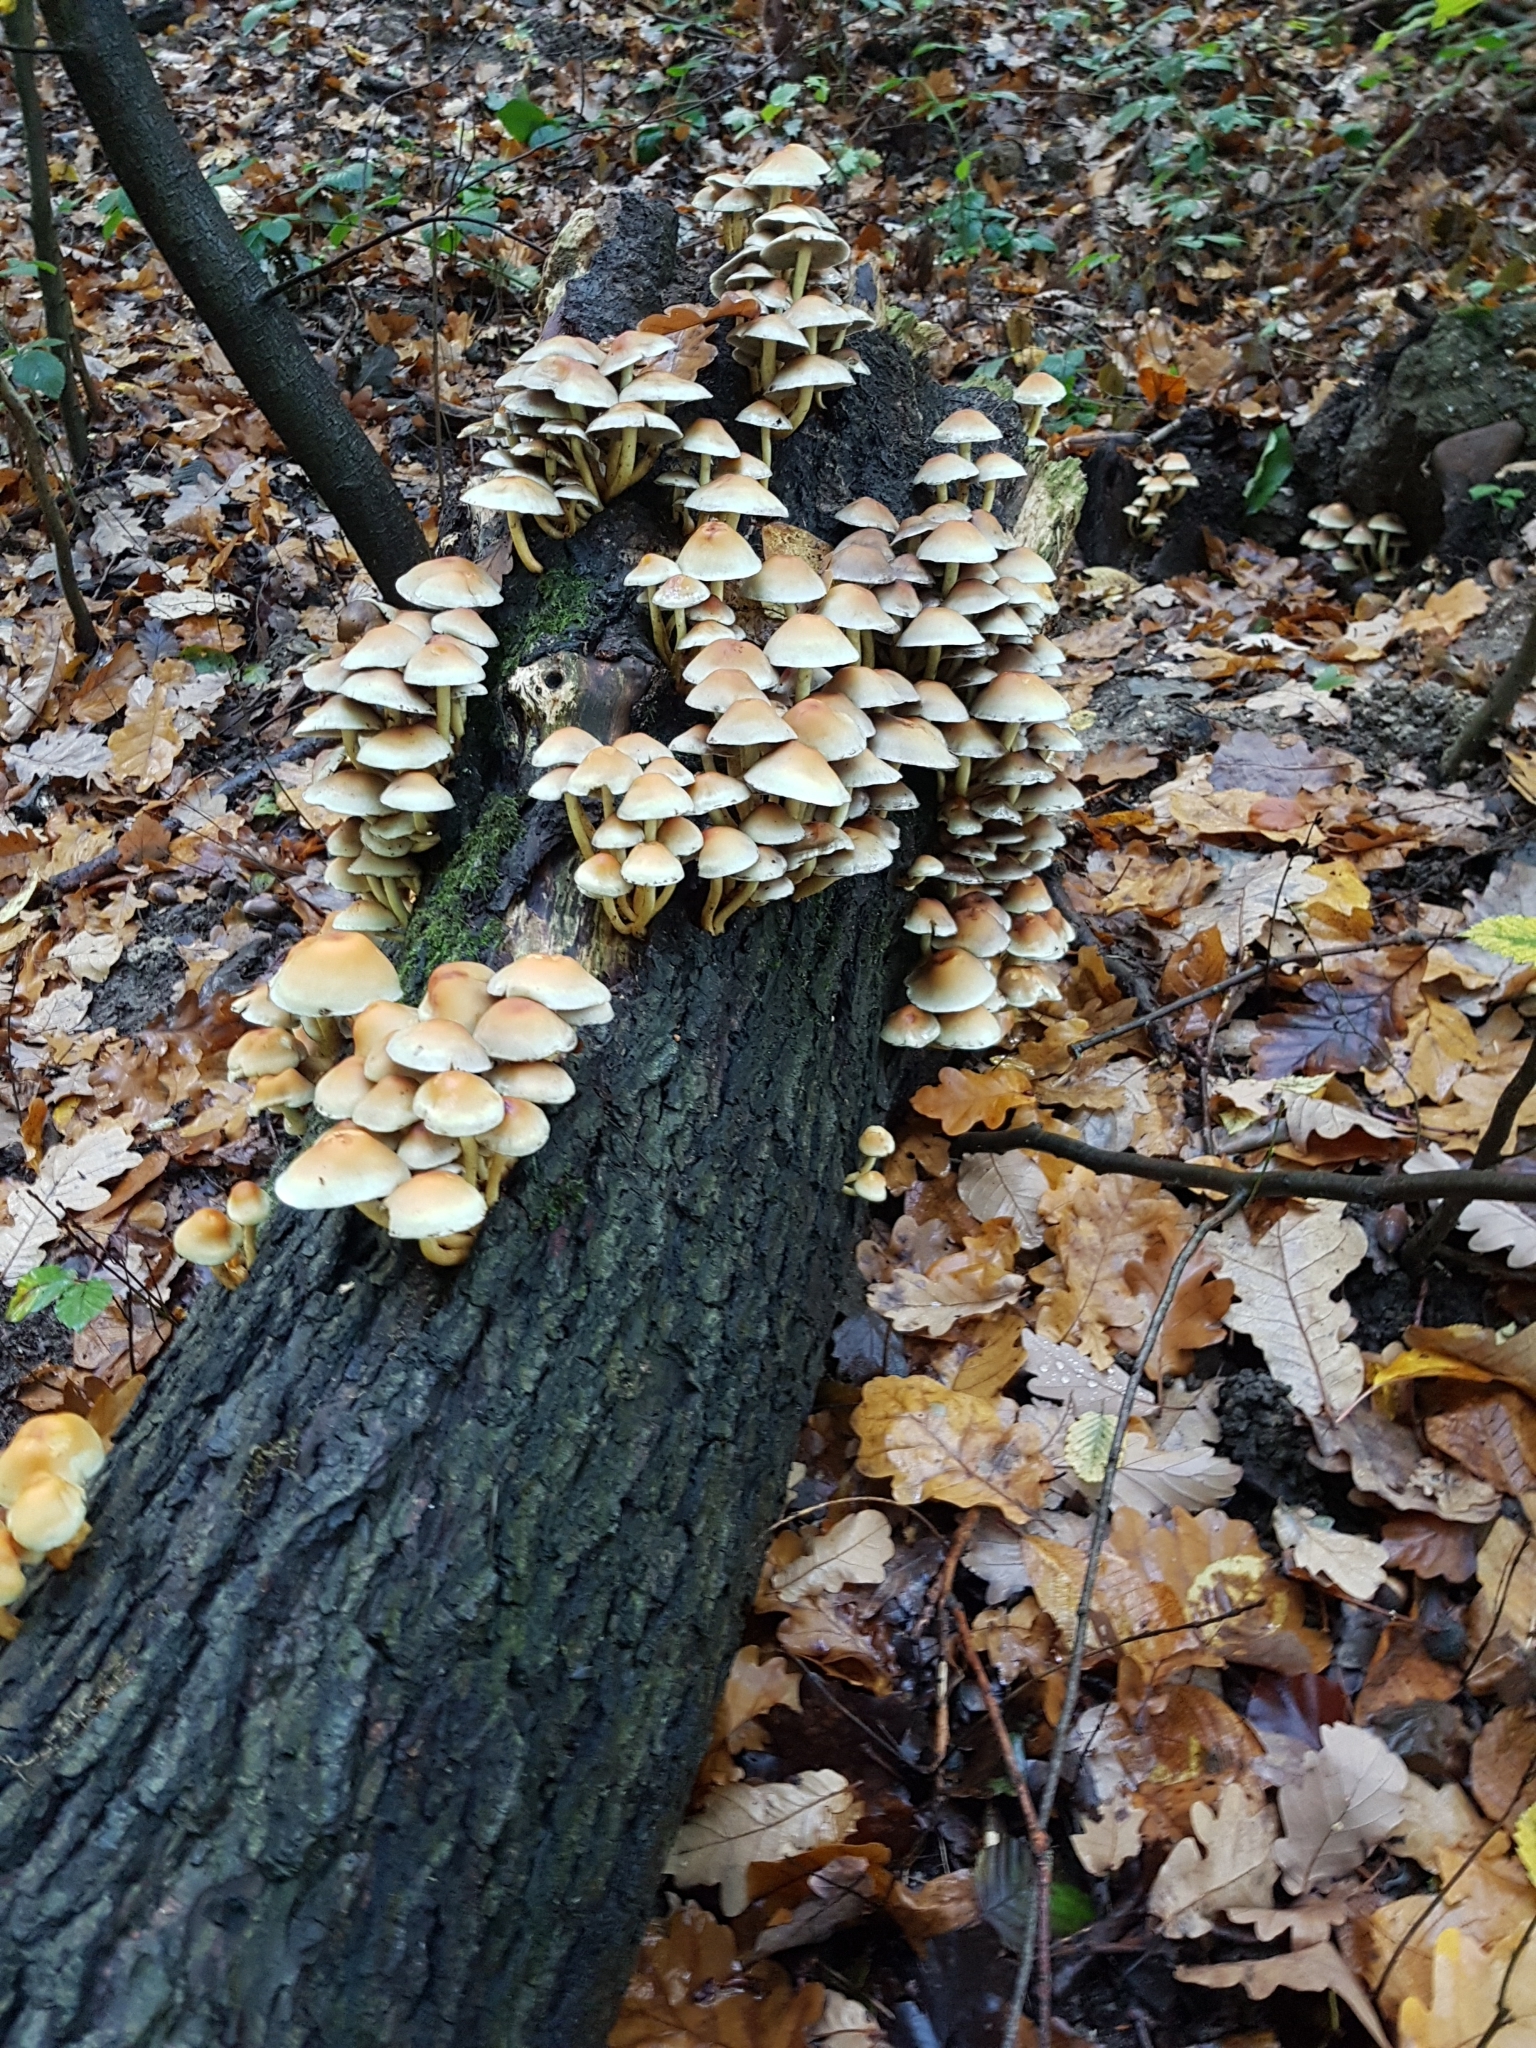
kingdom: Fungi
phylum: Basidiomycota
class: Agaricomycetes
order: Agaricales
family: Strophariaceae
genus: Hypholoma
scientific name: Hypholoma fasciculare
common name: Sulphur tuft
